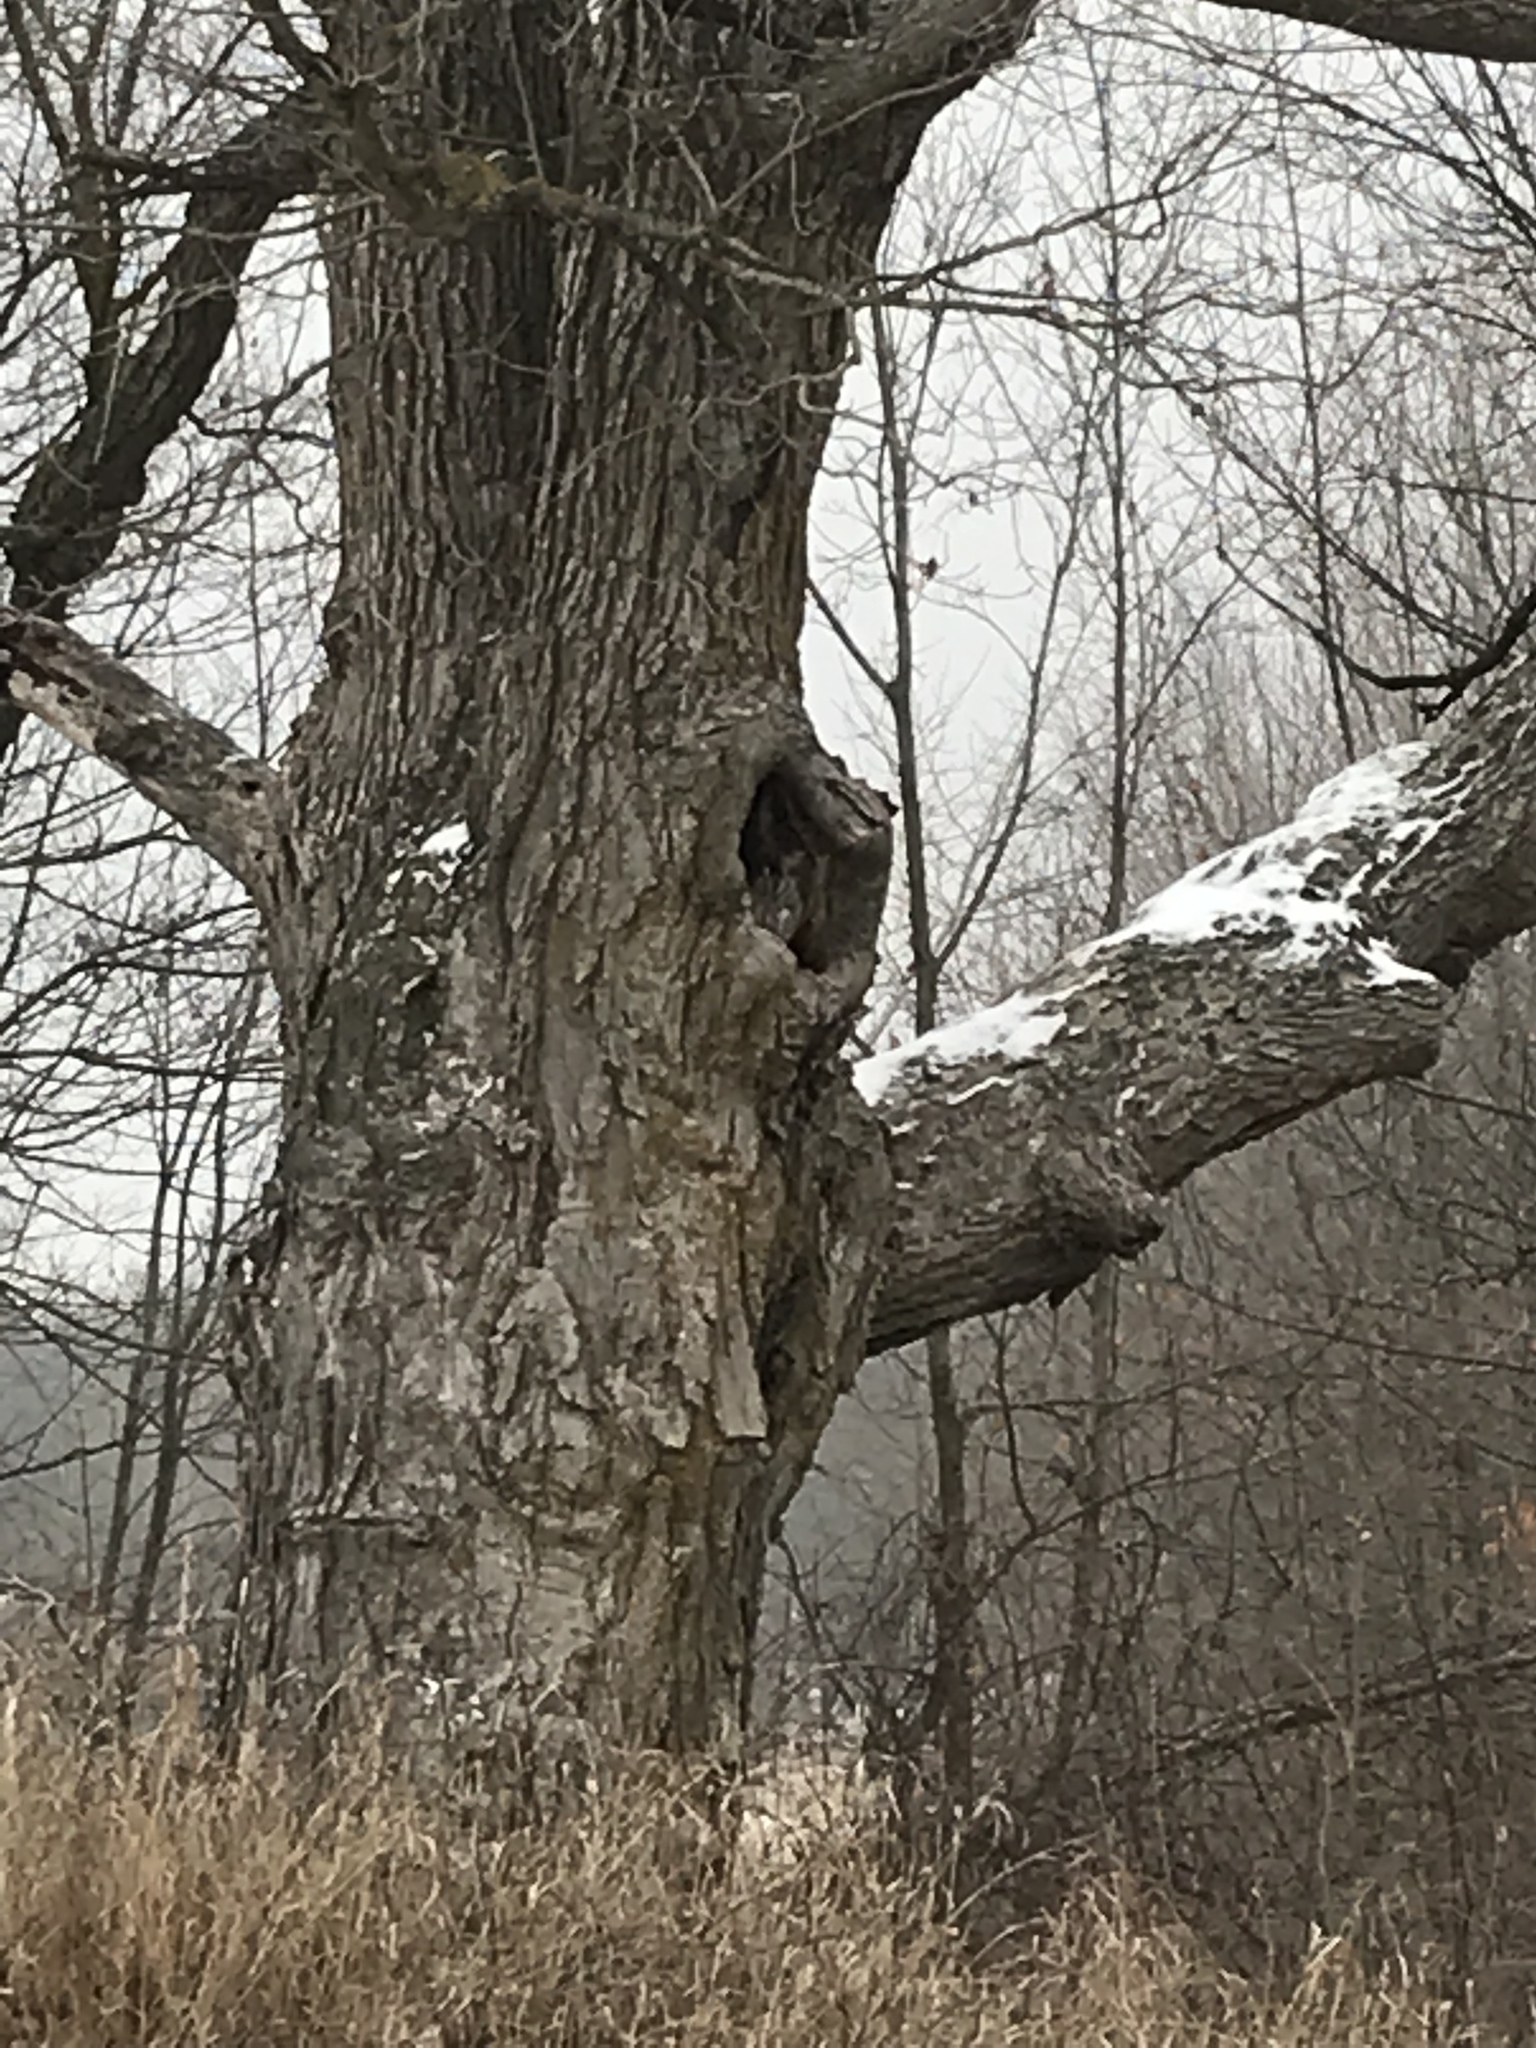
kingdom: Animalia
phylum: Chordata
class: Aves
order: Strigiformes
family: Strigidae
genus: Megascops
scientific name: Megascops asio
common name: Eastern screech-owl
